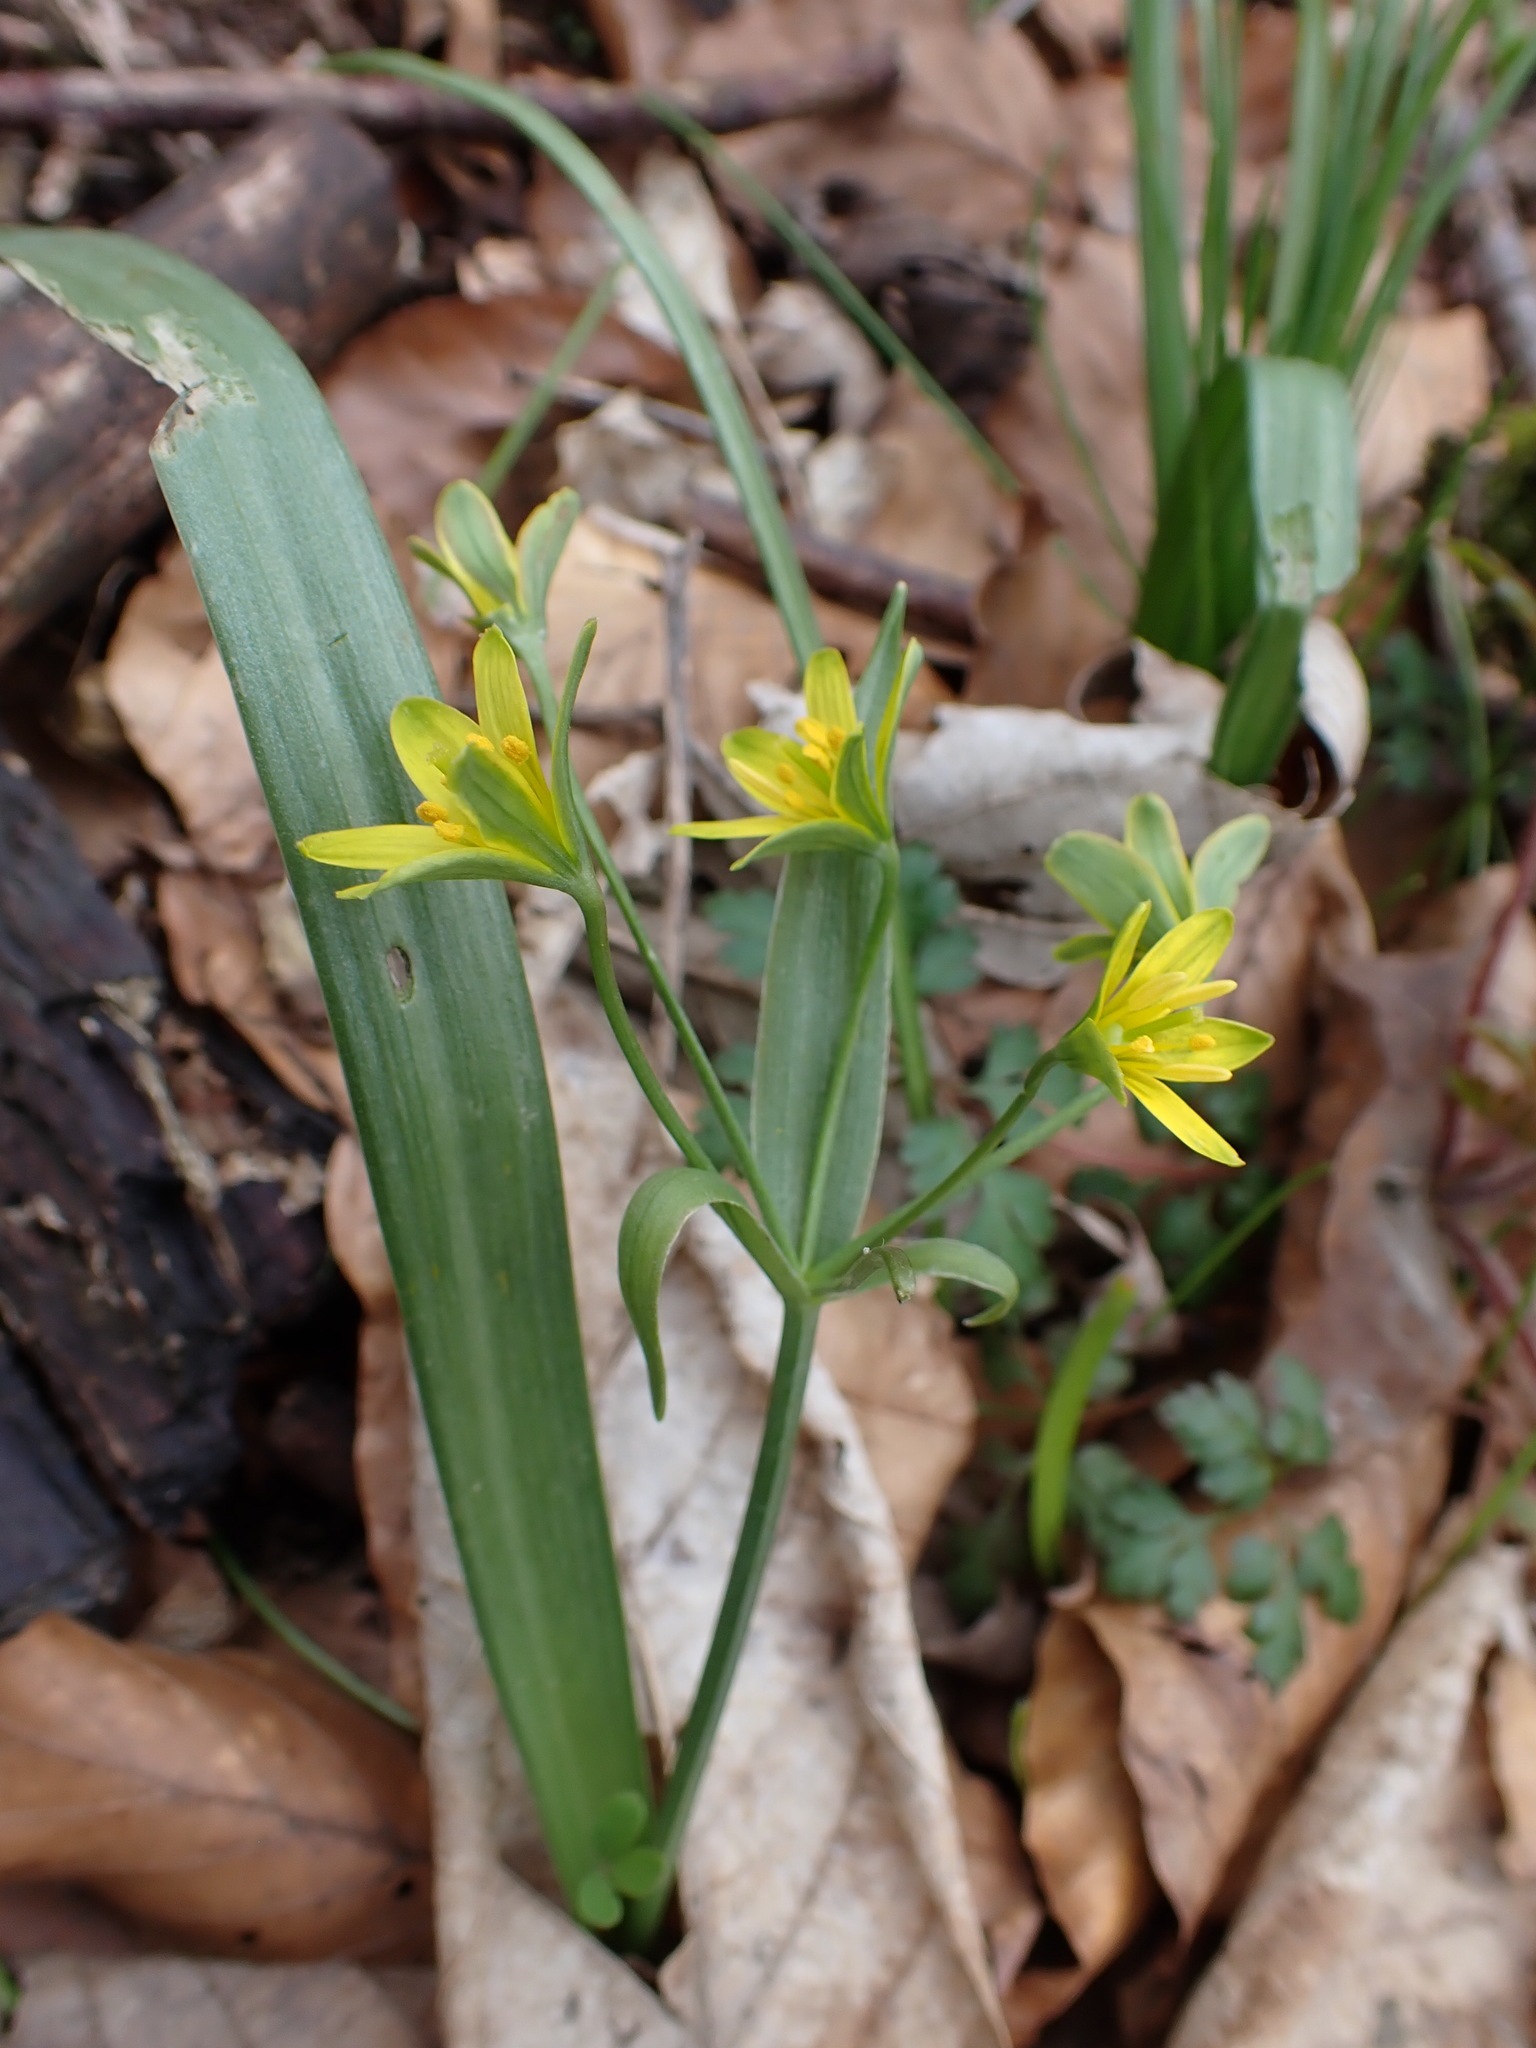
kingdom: Plantae
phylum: Tracheophyta
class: Magnoliopsida
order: Ranunculales
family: Ranunculaceae
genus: Ficaria
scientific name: Ficaria verna
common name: Lesser celandine
